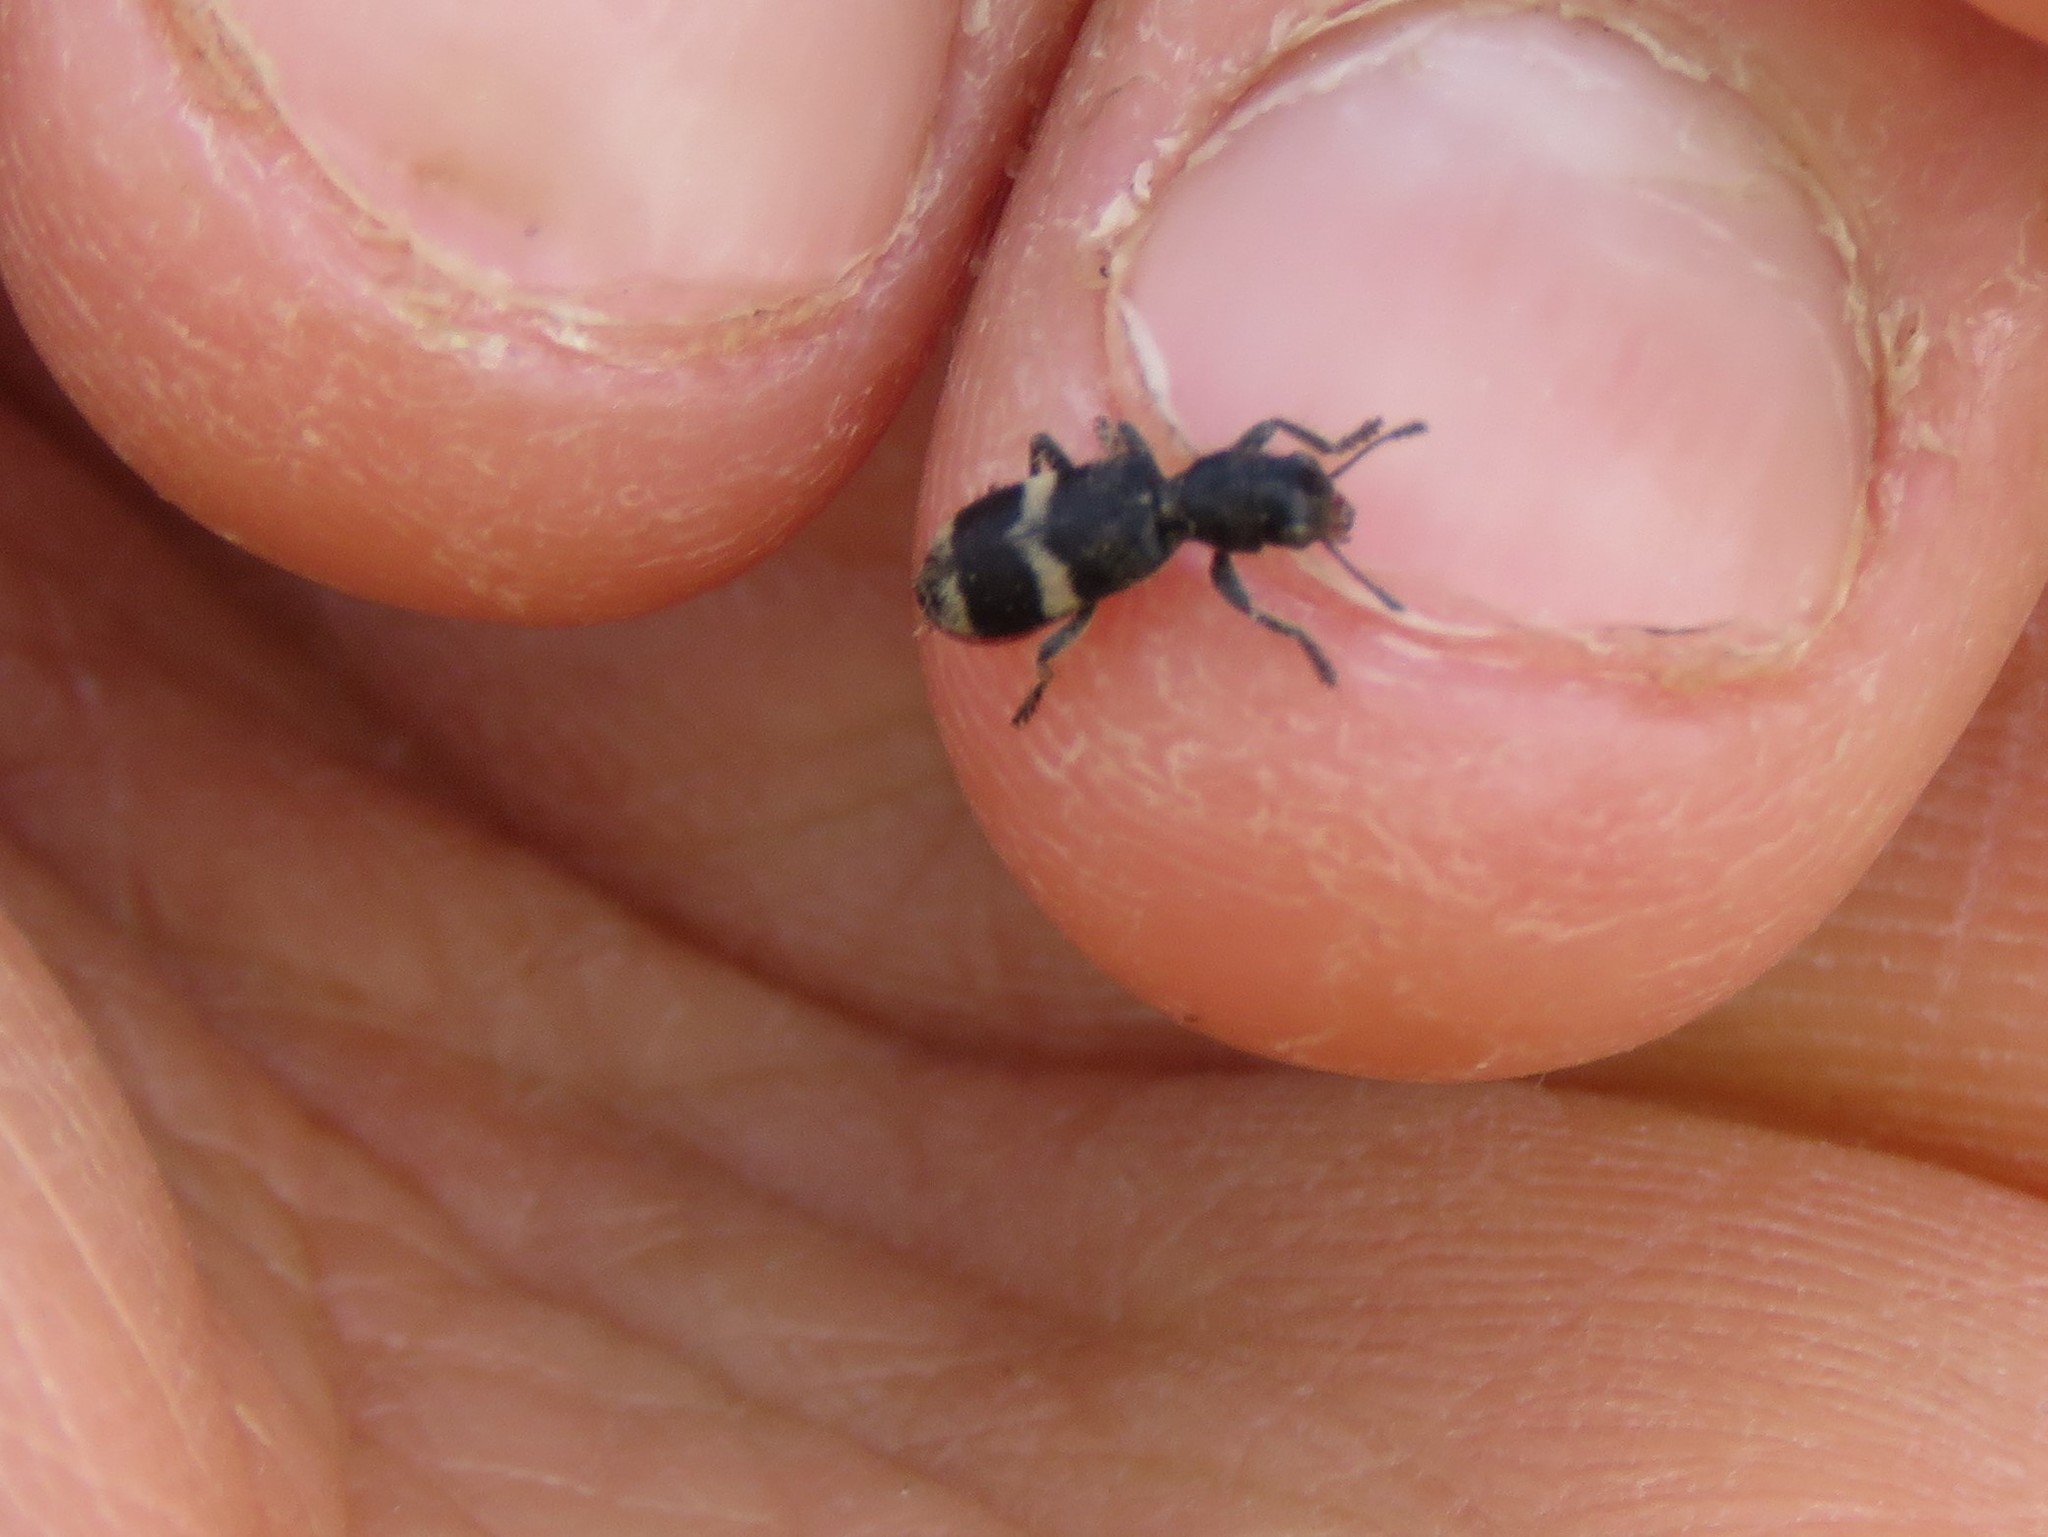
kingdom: Animalia
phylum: Arthropoda
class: Insecta
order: Coleoptera
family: Cleridae
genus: Enoclerus
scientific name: Enoclerus nigripes
